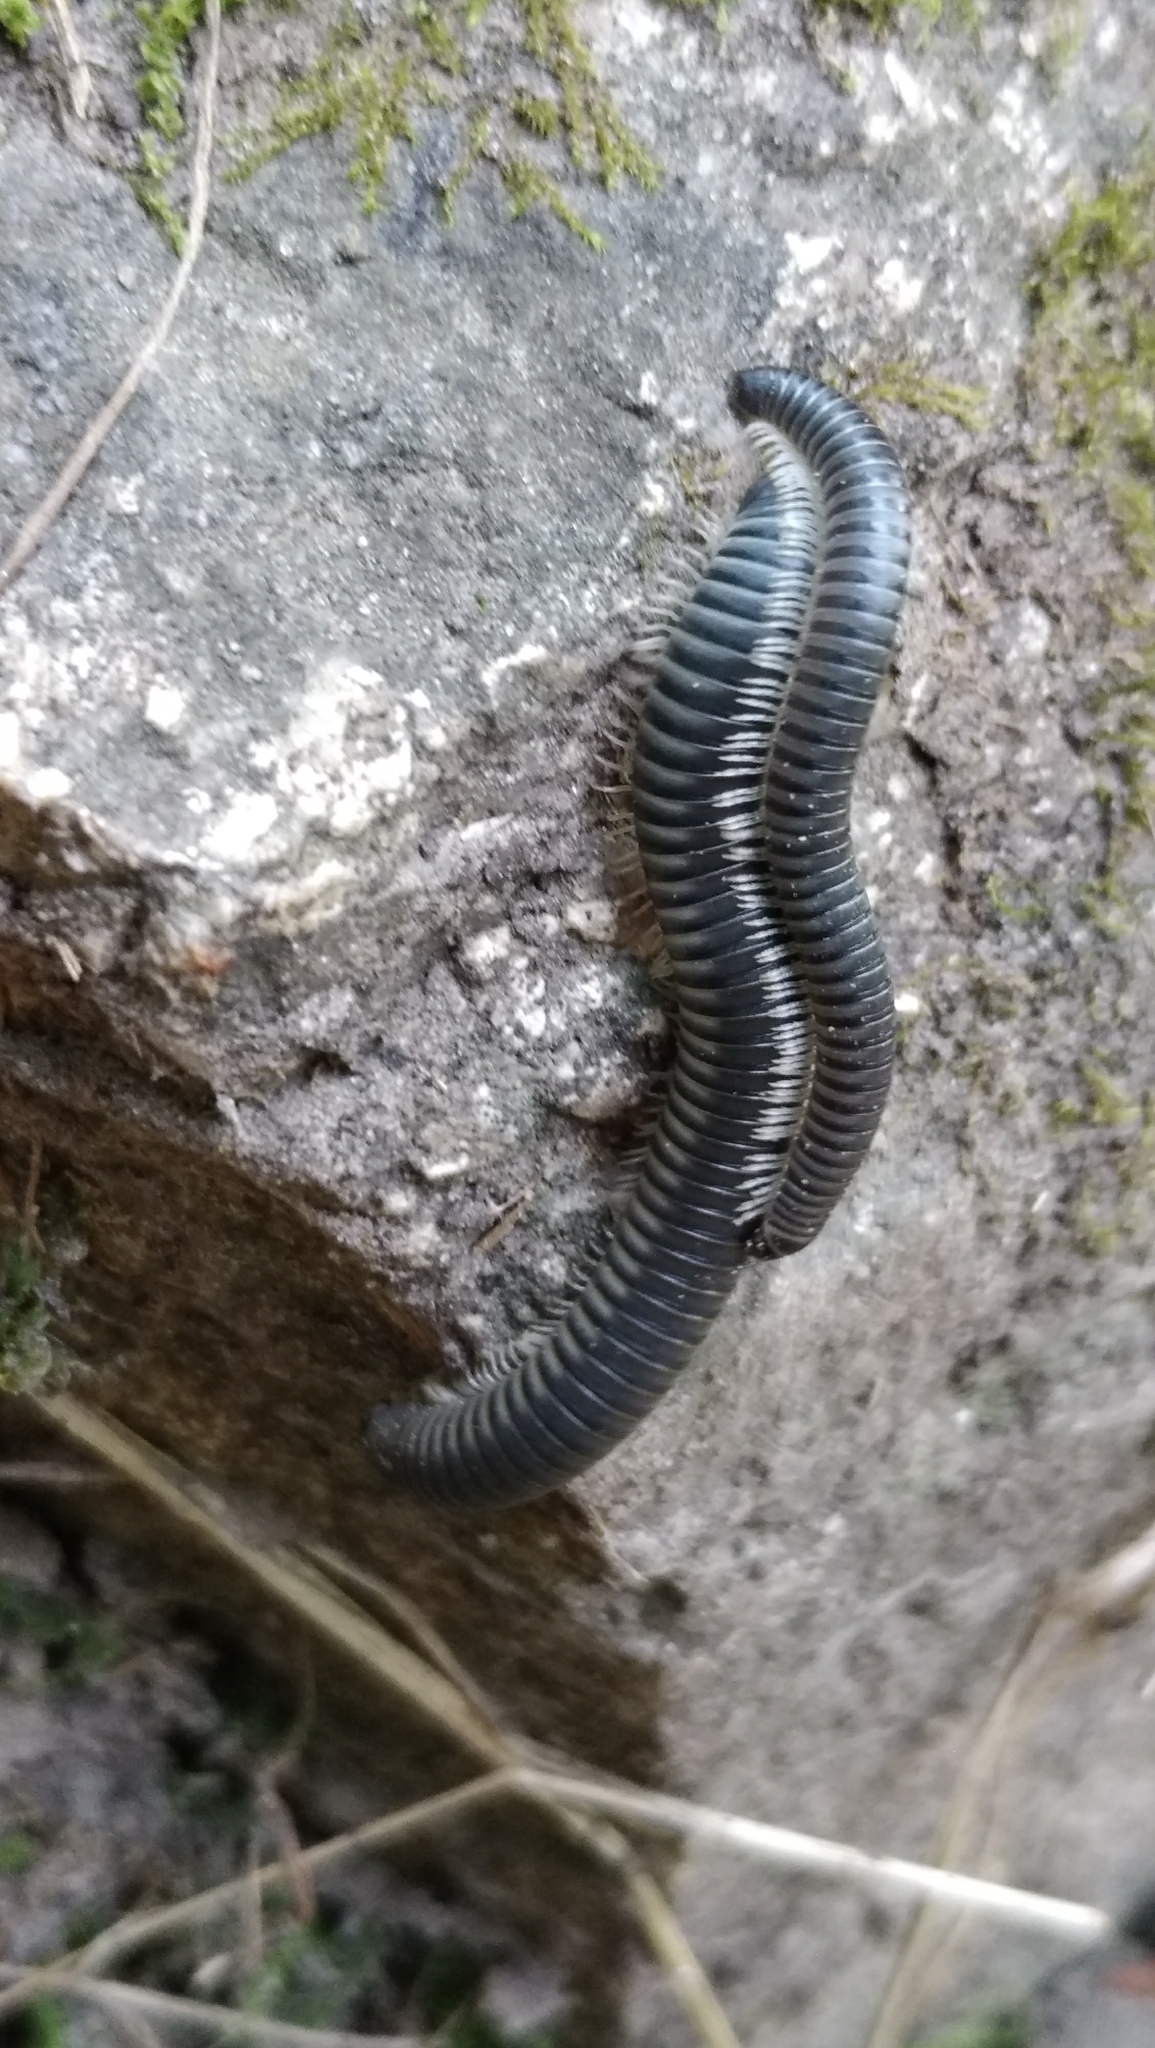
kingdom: Animalia
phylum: Arthropoda
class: Diplopoda
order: Julida
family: Julidae
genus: Rossiulus
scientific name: Rossiulus kessleri
